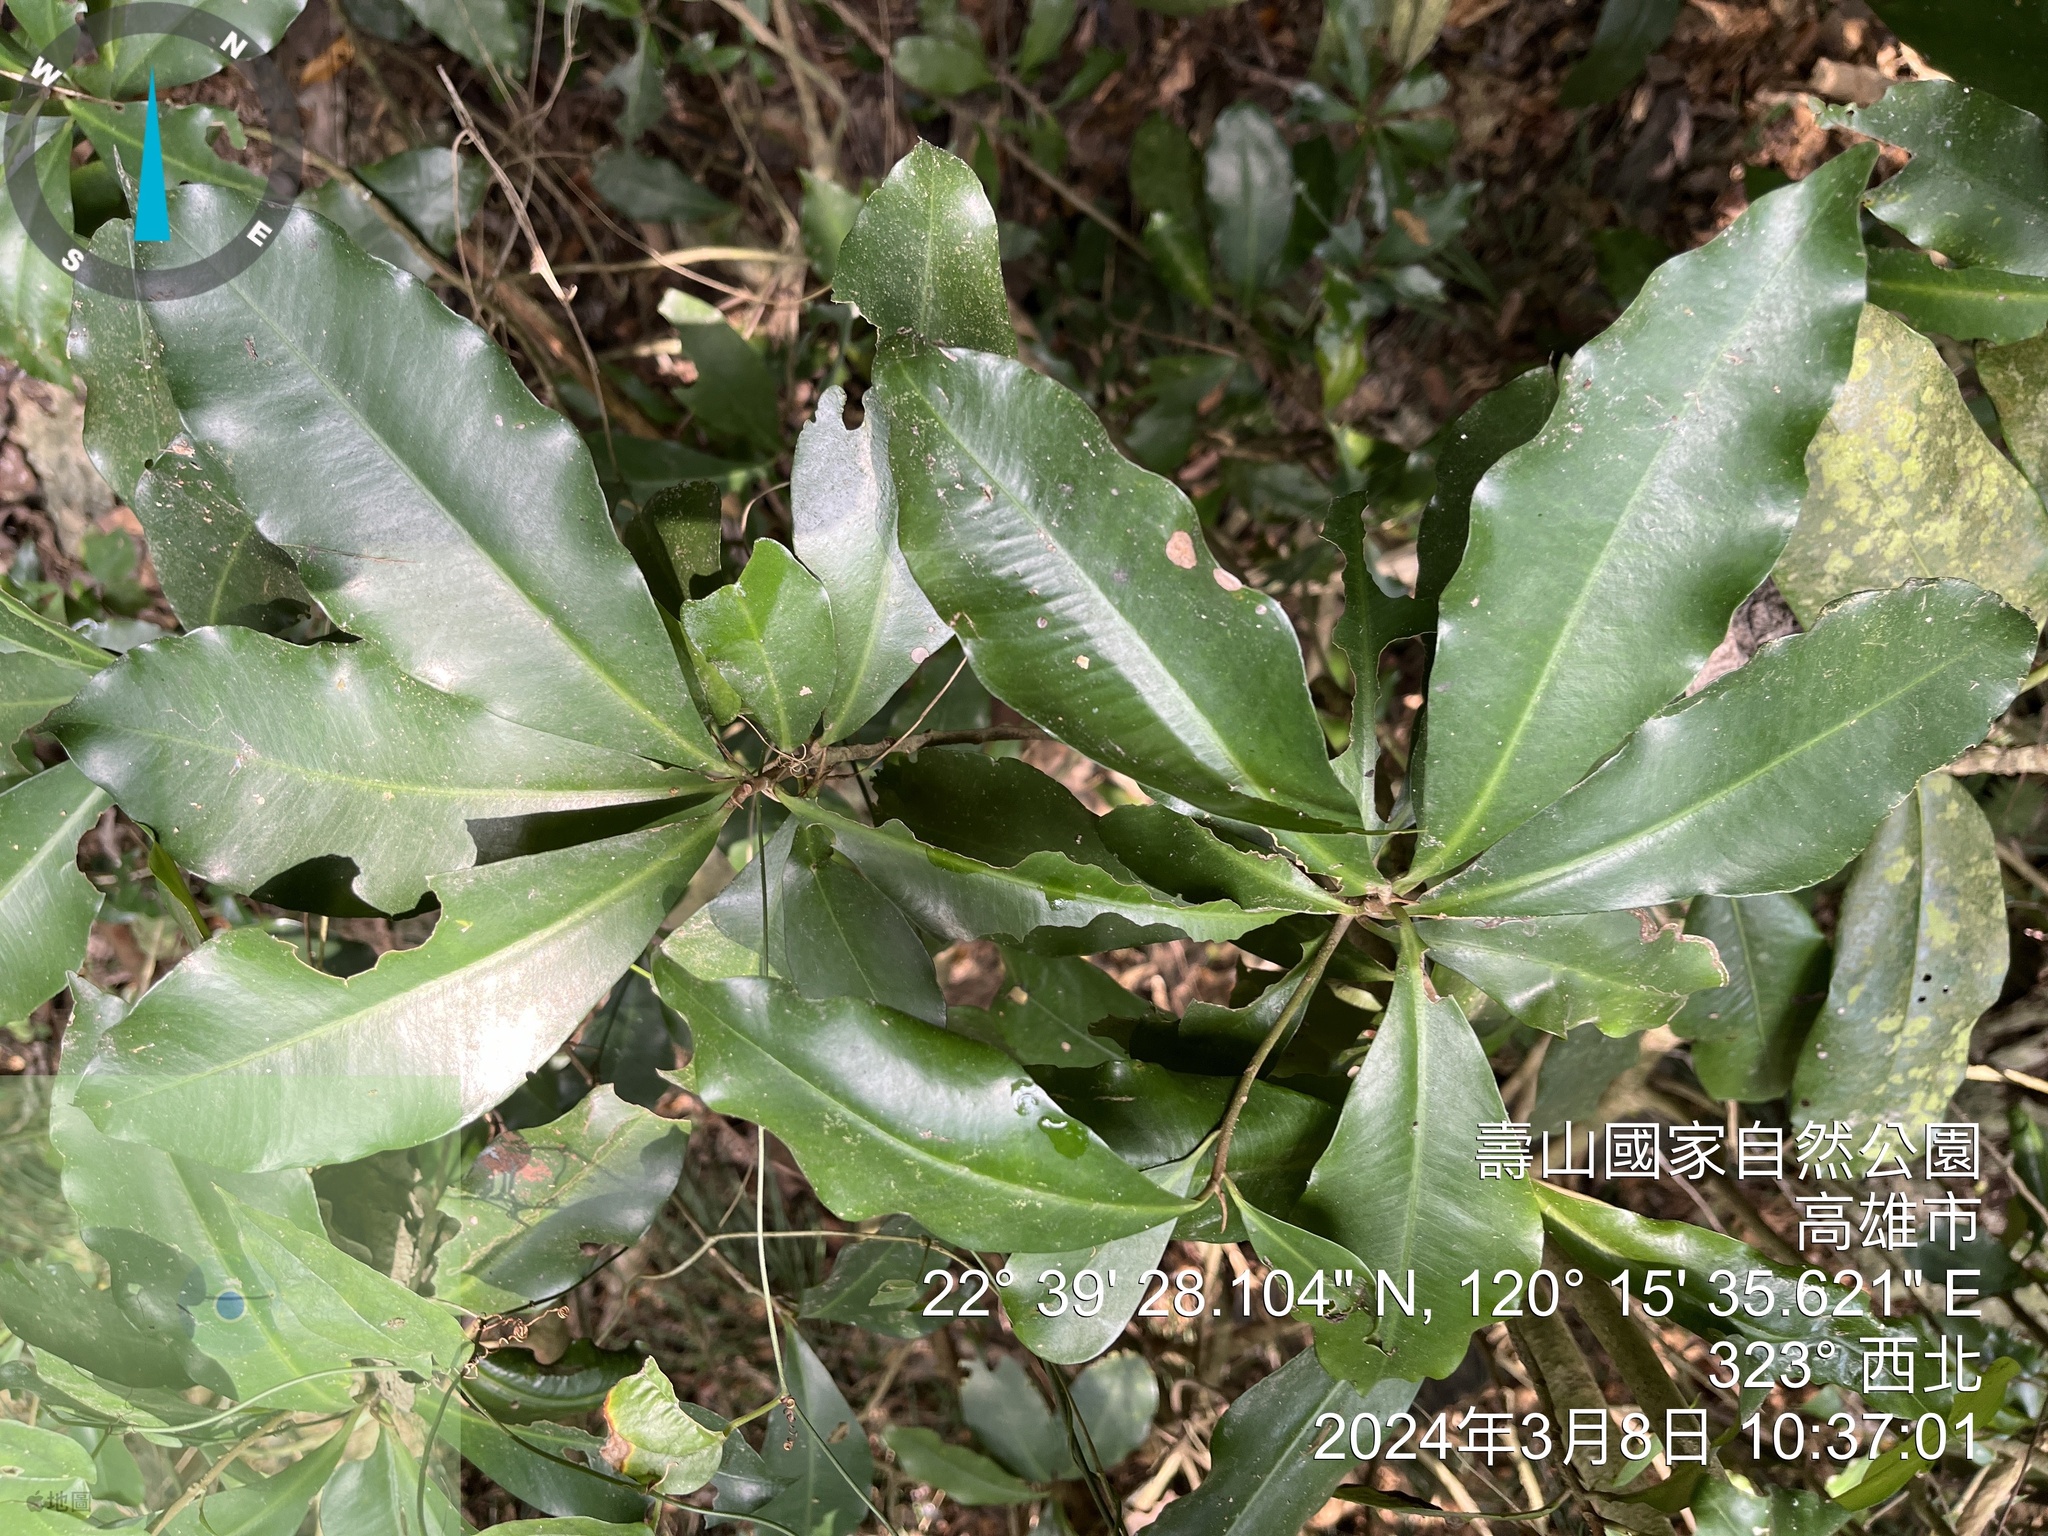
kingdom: Plantae
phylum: Tracheophyta
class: Magnoliopsida
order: Ericales
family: Primulaceae
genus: Ardisia
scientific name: Ardisia cornudentata
